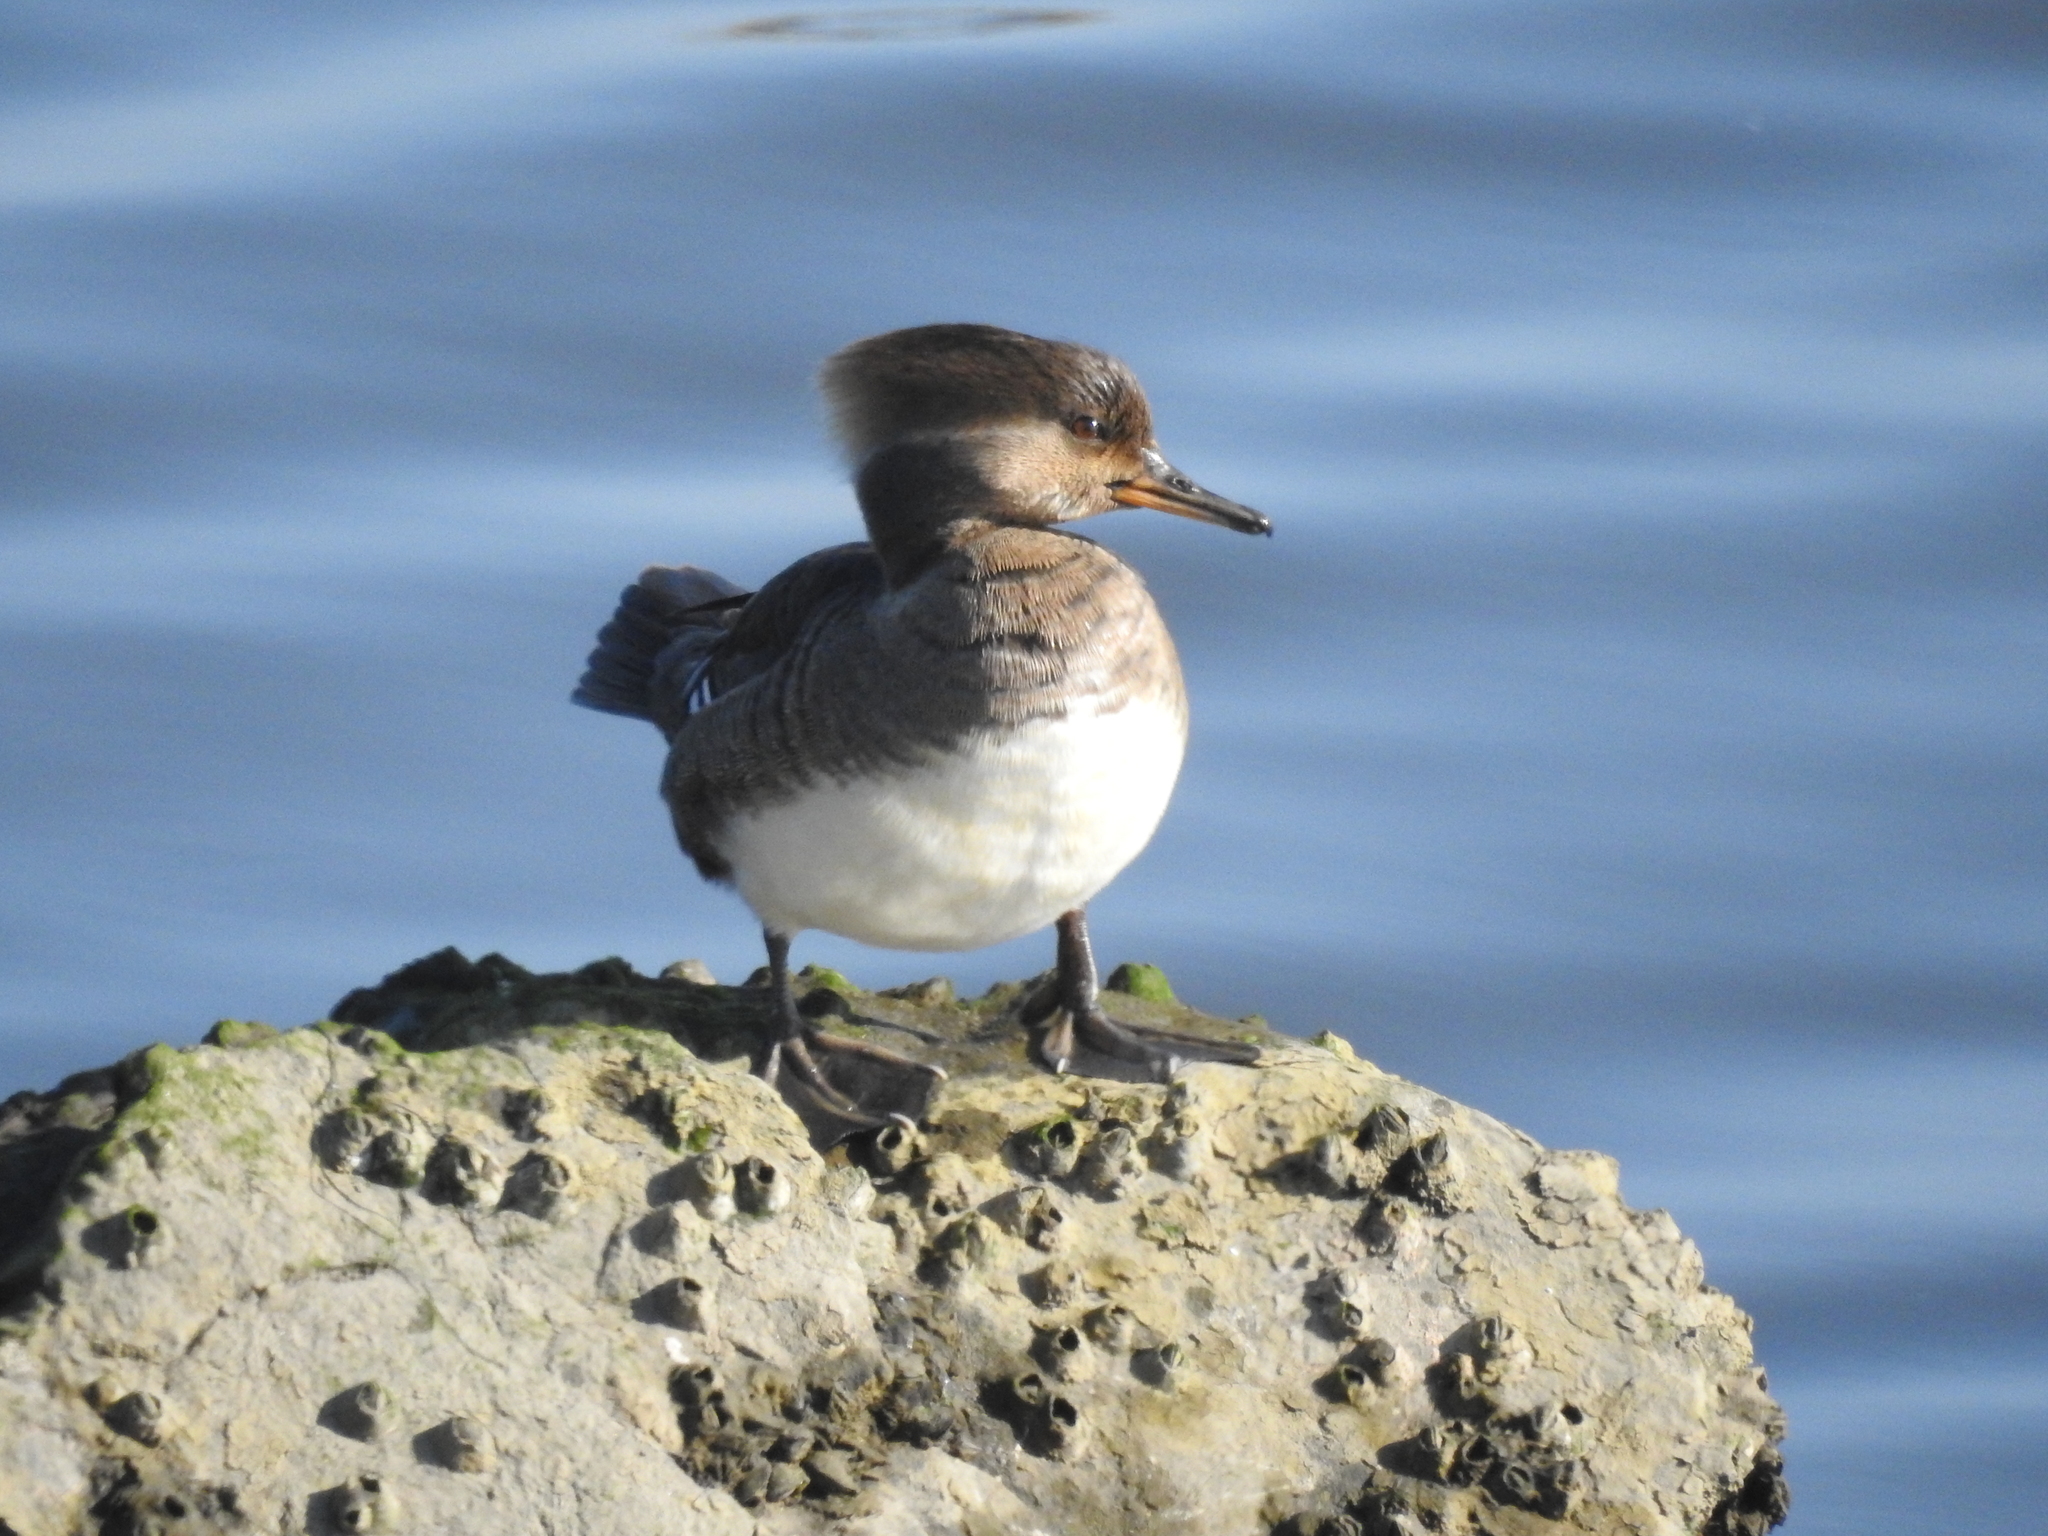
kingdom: Animalia
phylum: Chordata
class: Aves
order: Anseriformes
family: Anatidae
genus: Lophodytes
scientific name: Lophodytes cucullatus
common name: Hooded merganser
